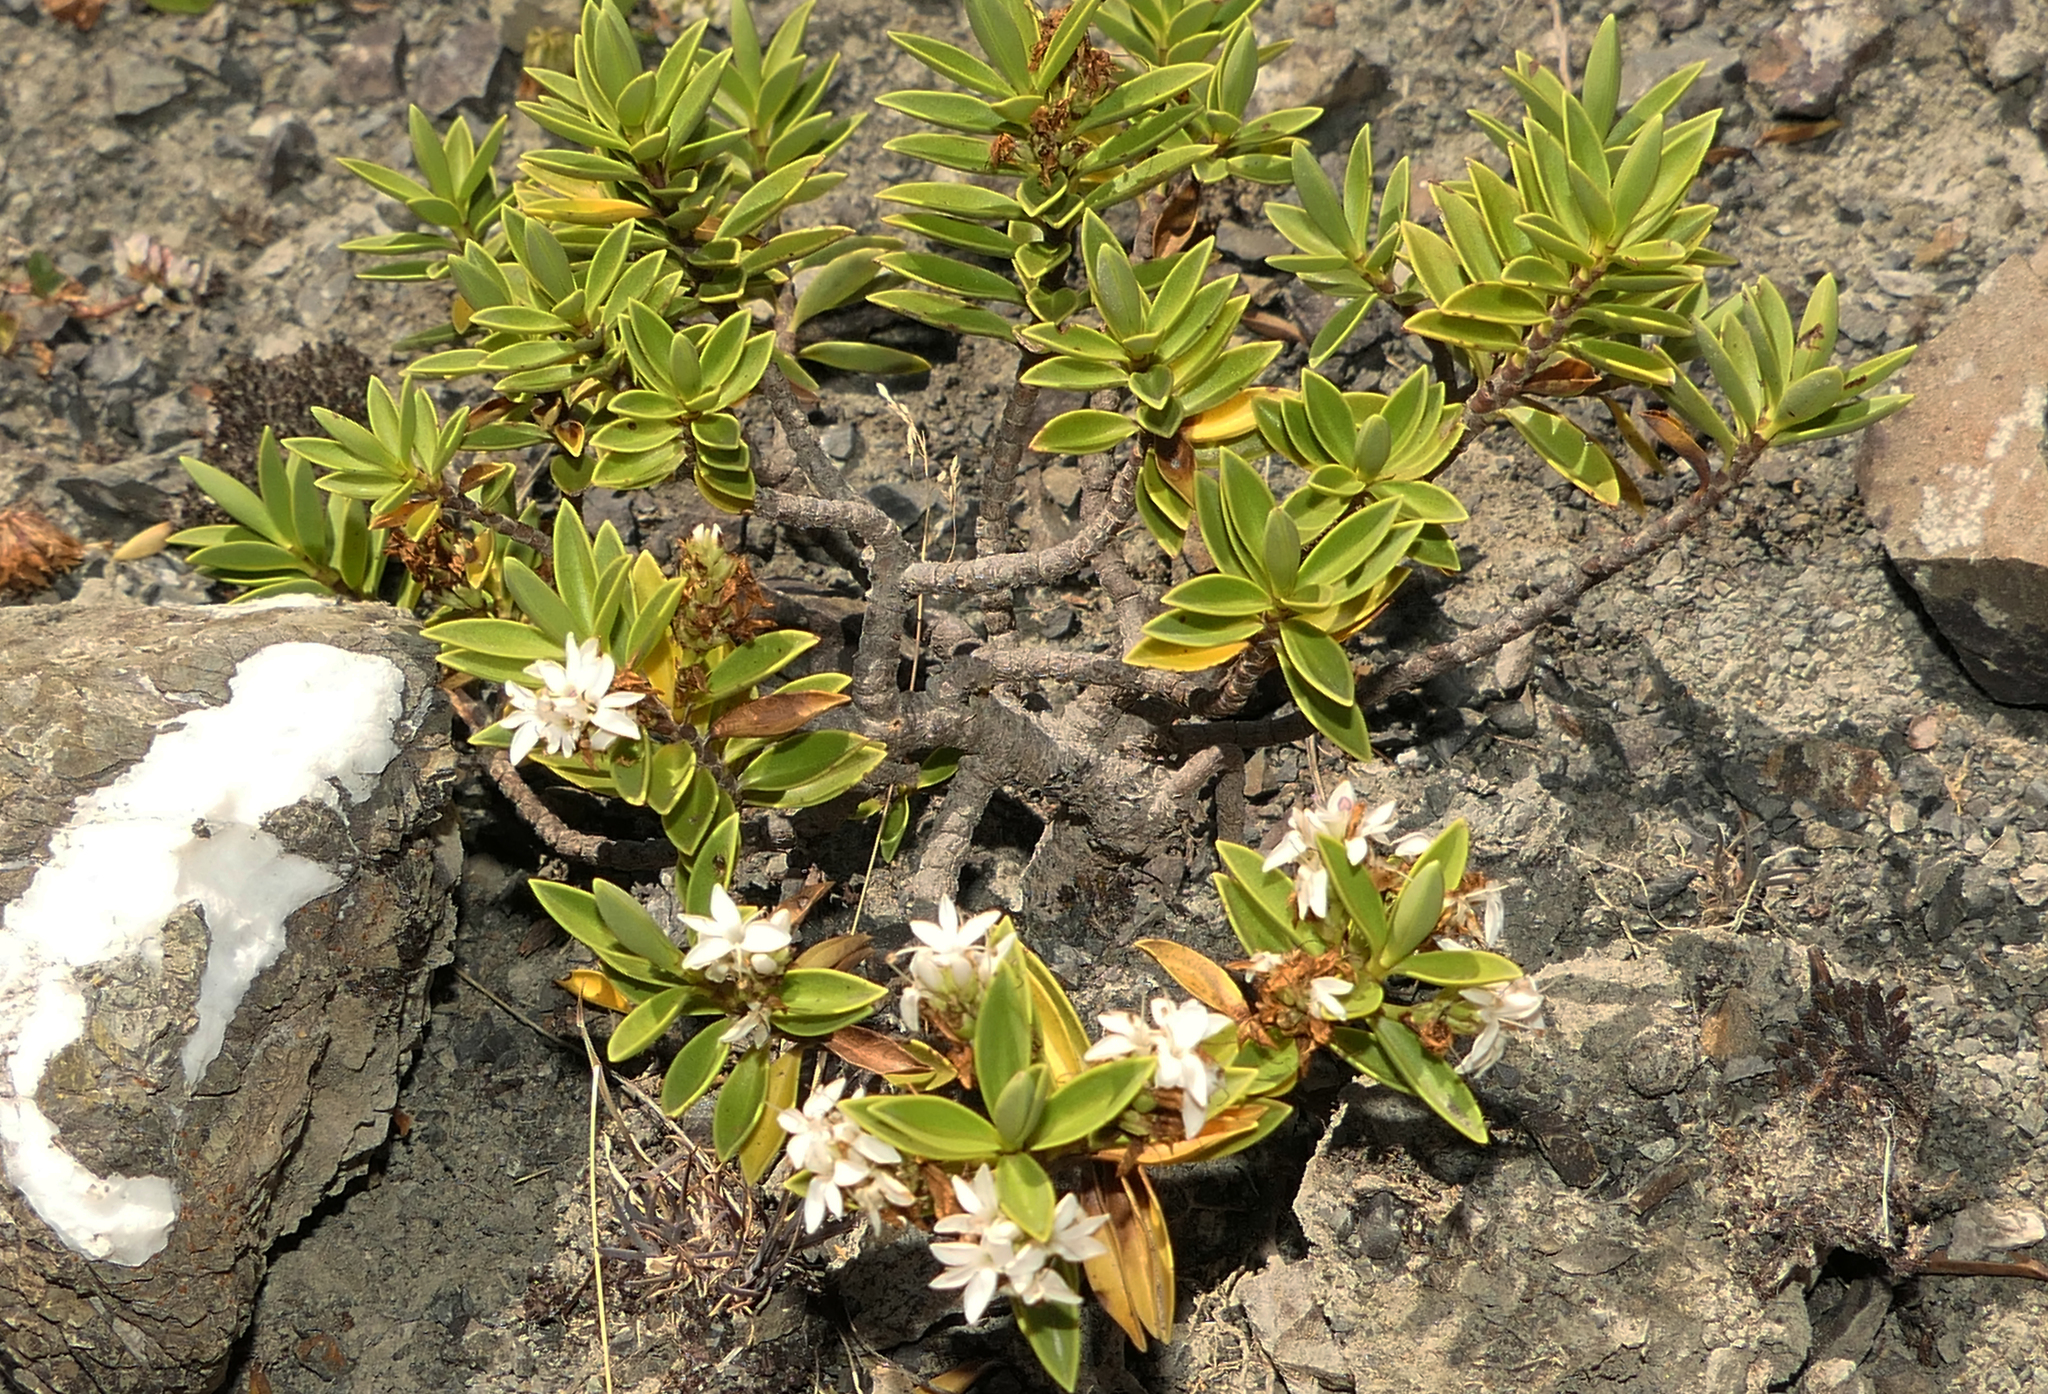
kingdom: Plantae
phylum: Tracheophyta
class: Magnoliopsida
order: Lamiales
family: Plantaginaceae
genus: Veronica
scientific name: Veronica rupicola
